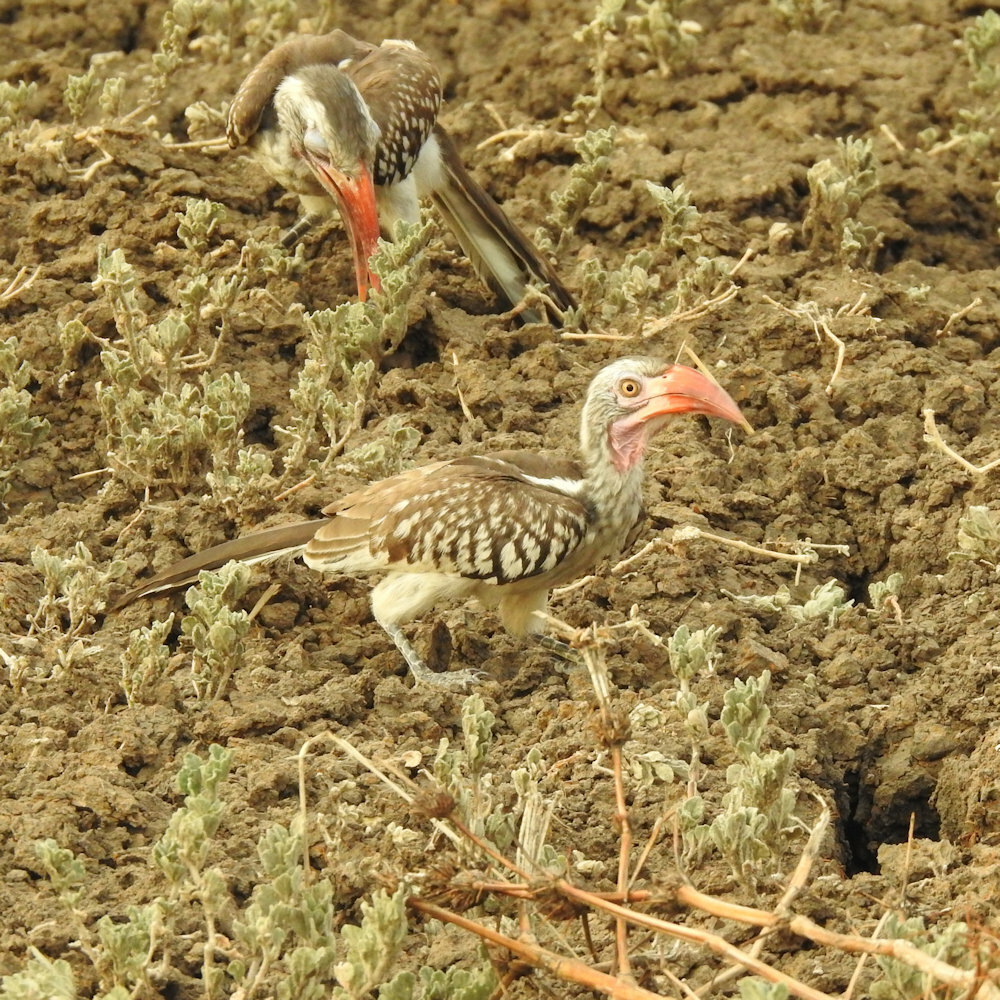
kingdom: Animalia
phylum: Chordata
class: Aves
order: Bucerotiformes
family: Bucerotidae
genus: Tockus
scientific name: Tockus rufirostris
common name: Southern red-billed hornbill
